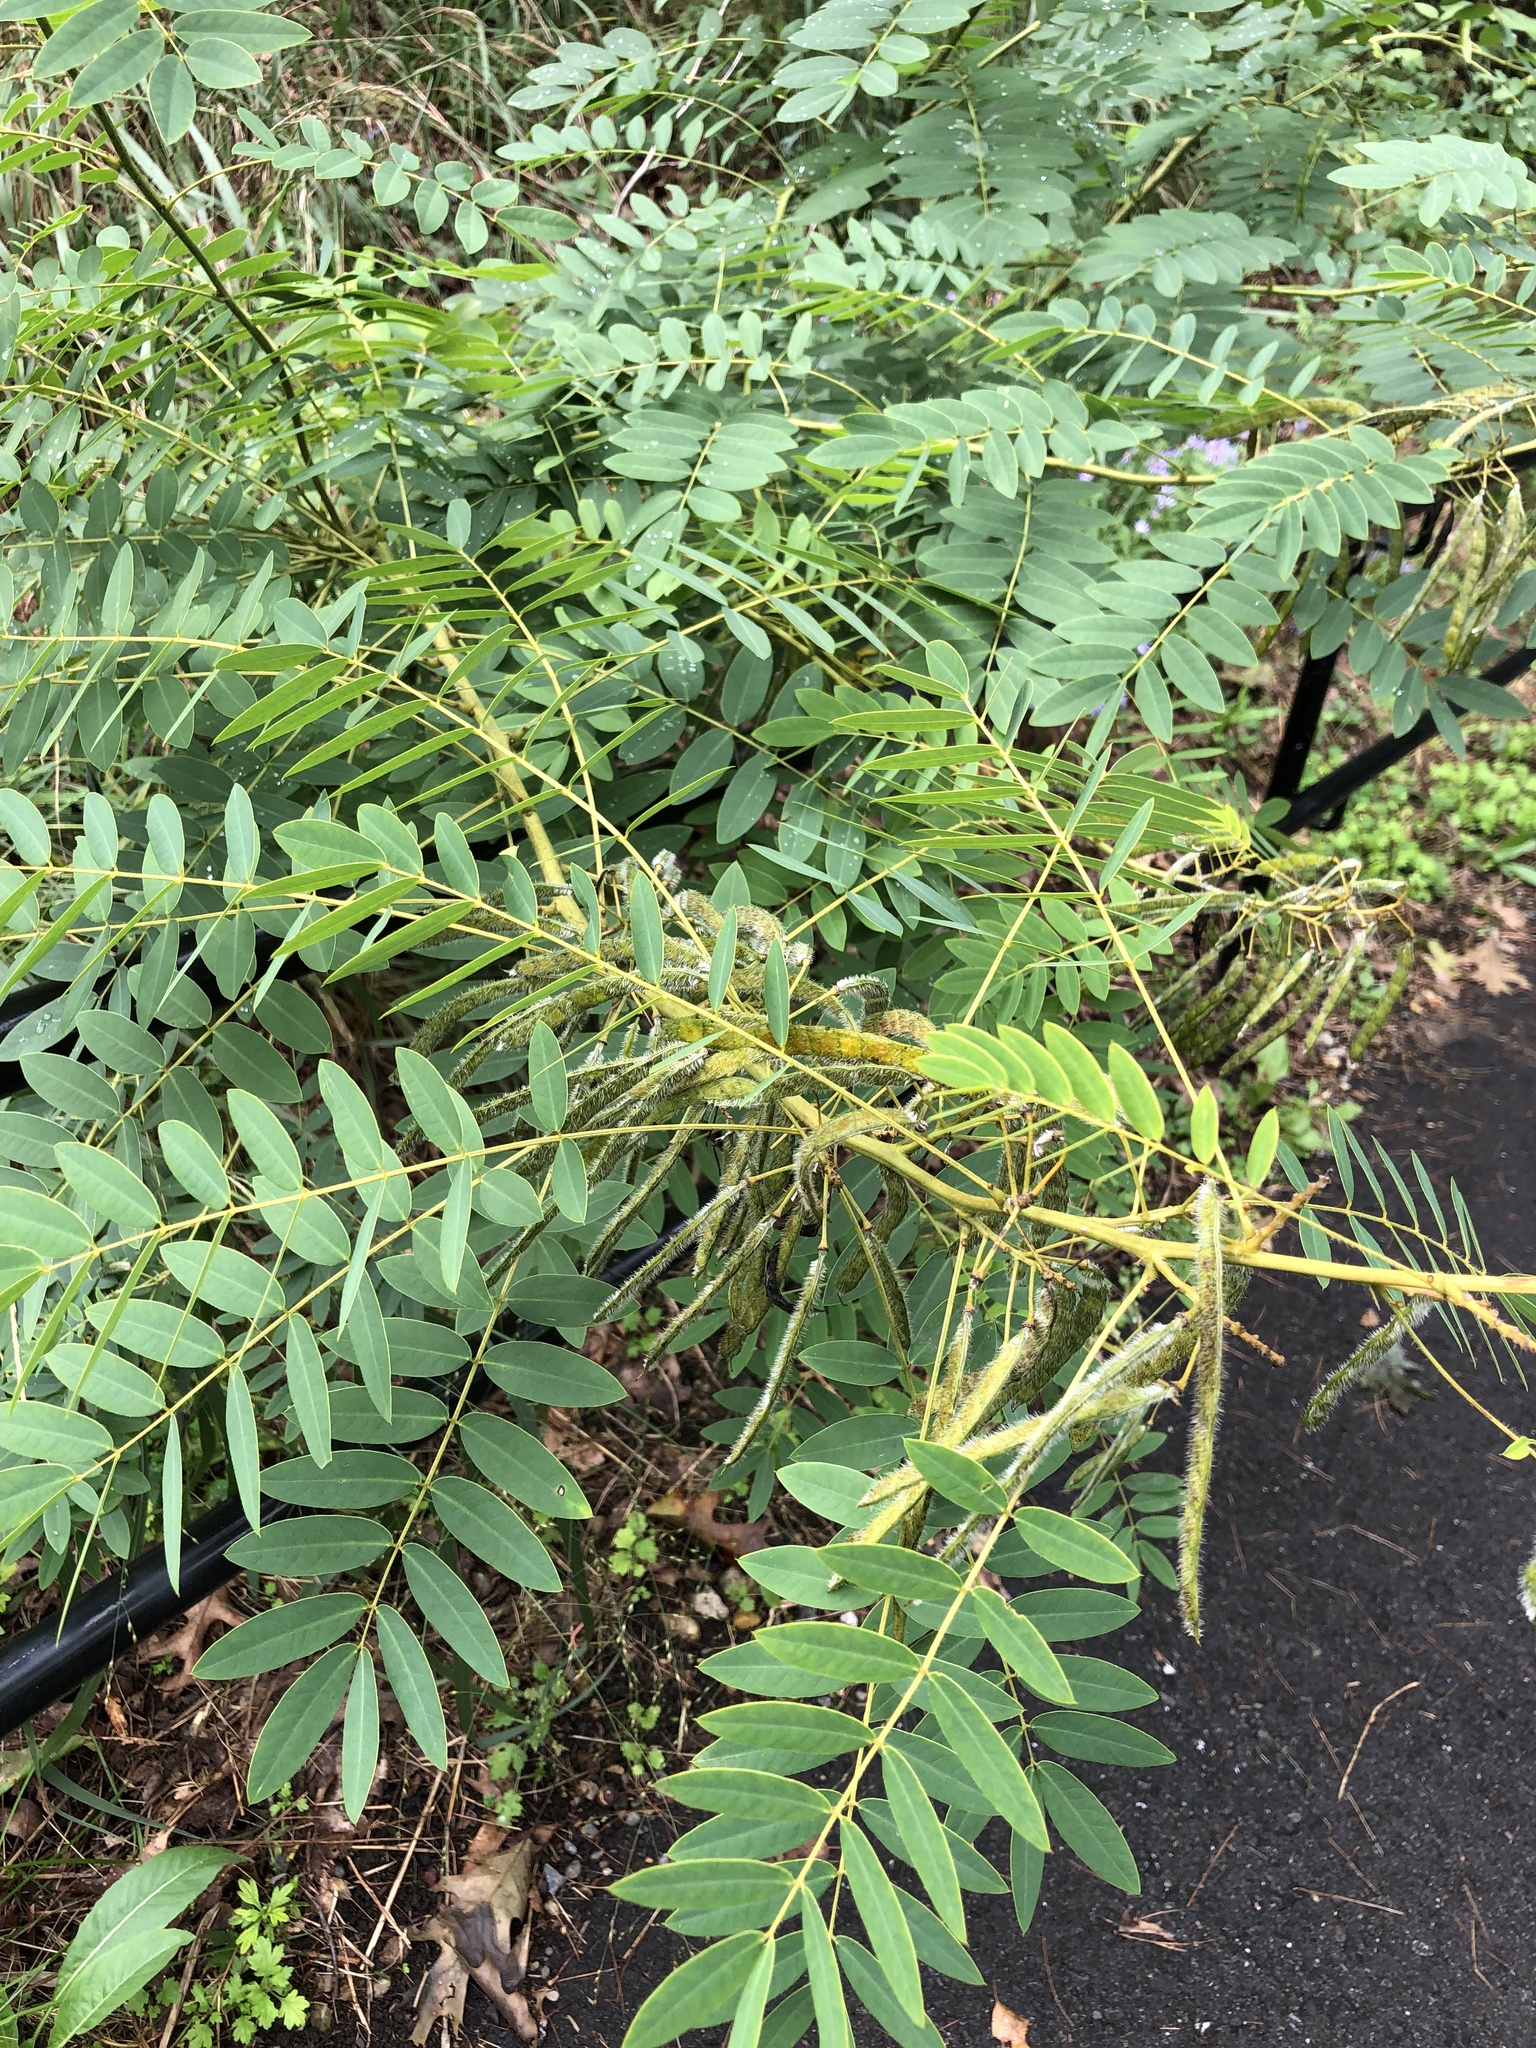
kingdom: Plantae
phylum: Tracheophyta
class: Magnoliopsida
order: Fabales
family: Fabaceae
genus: Senna
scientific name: Senna hebecarpa
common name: Wild senna
